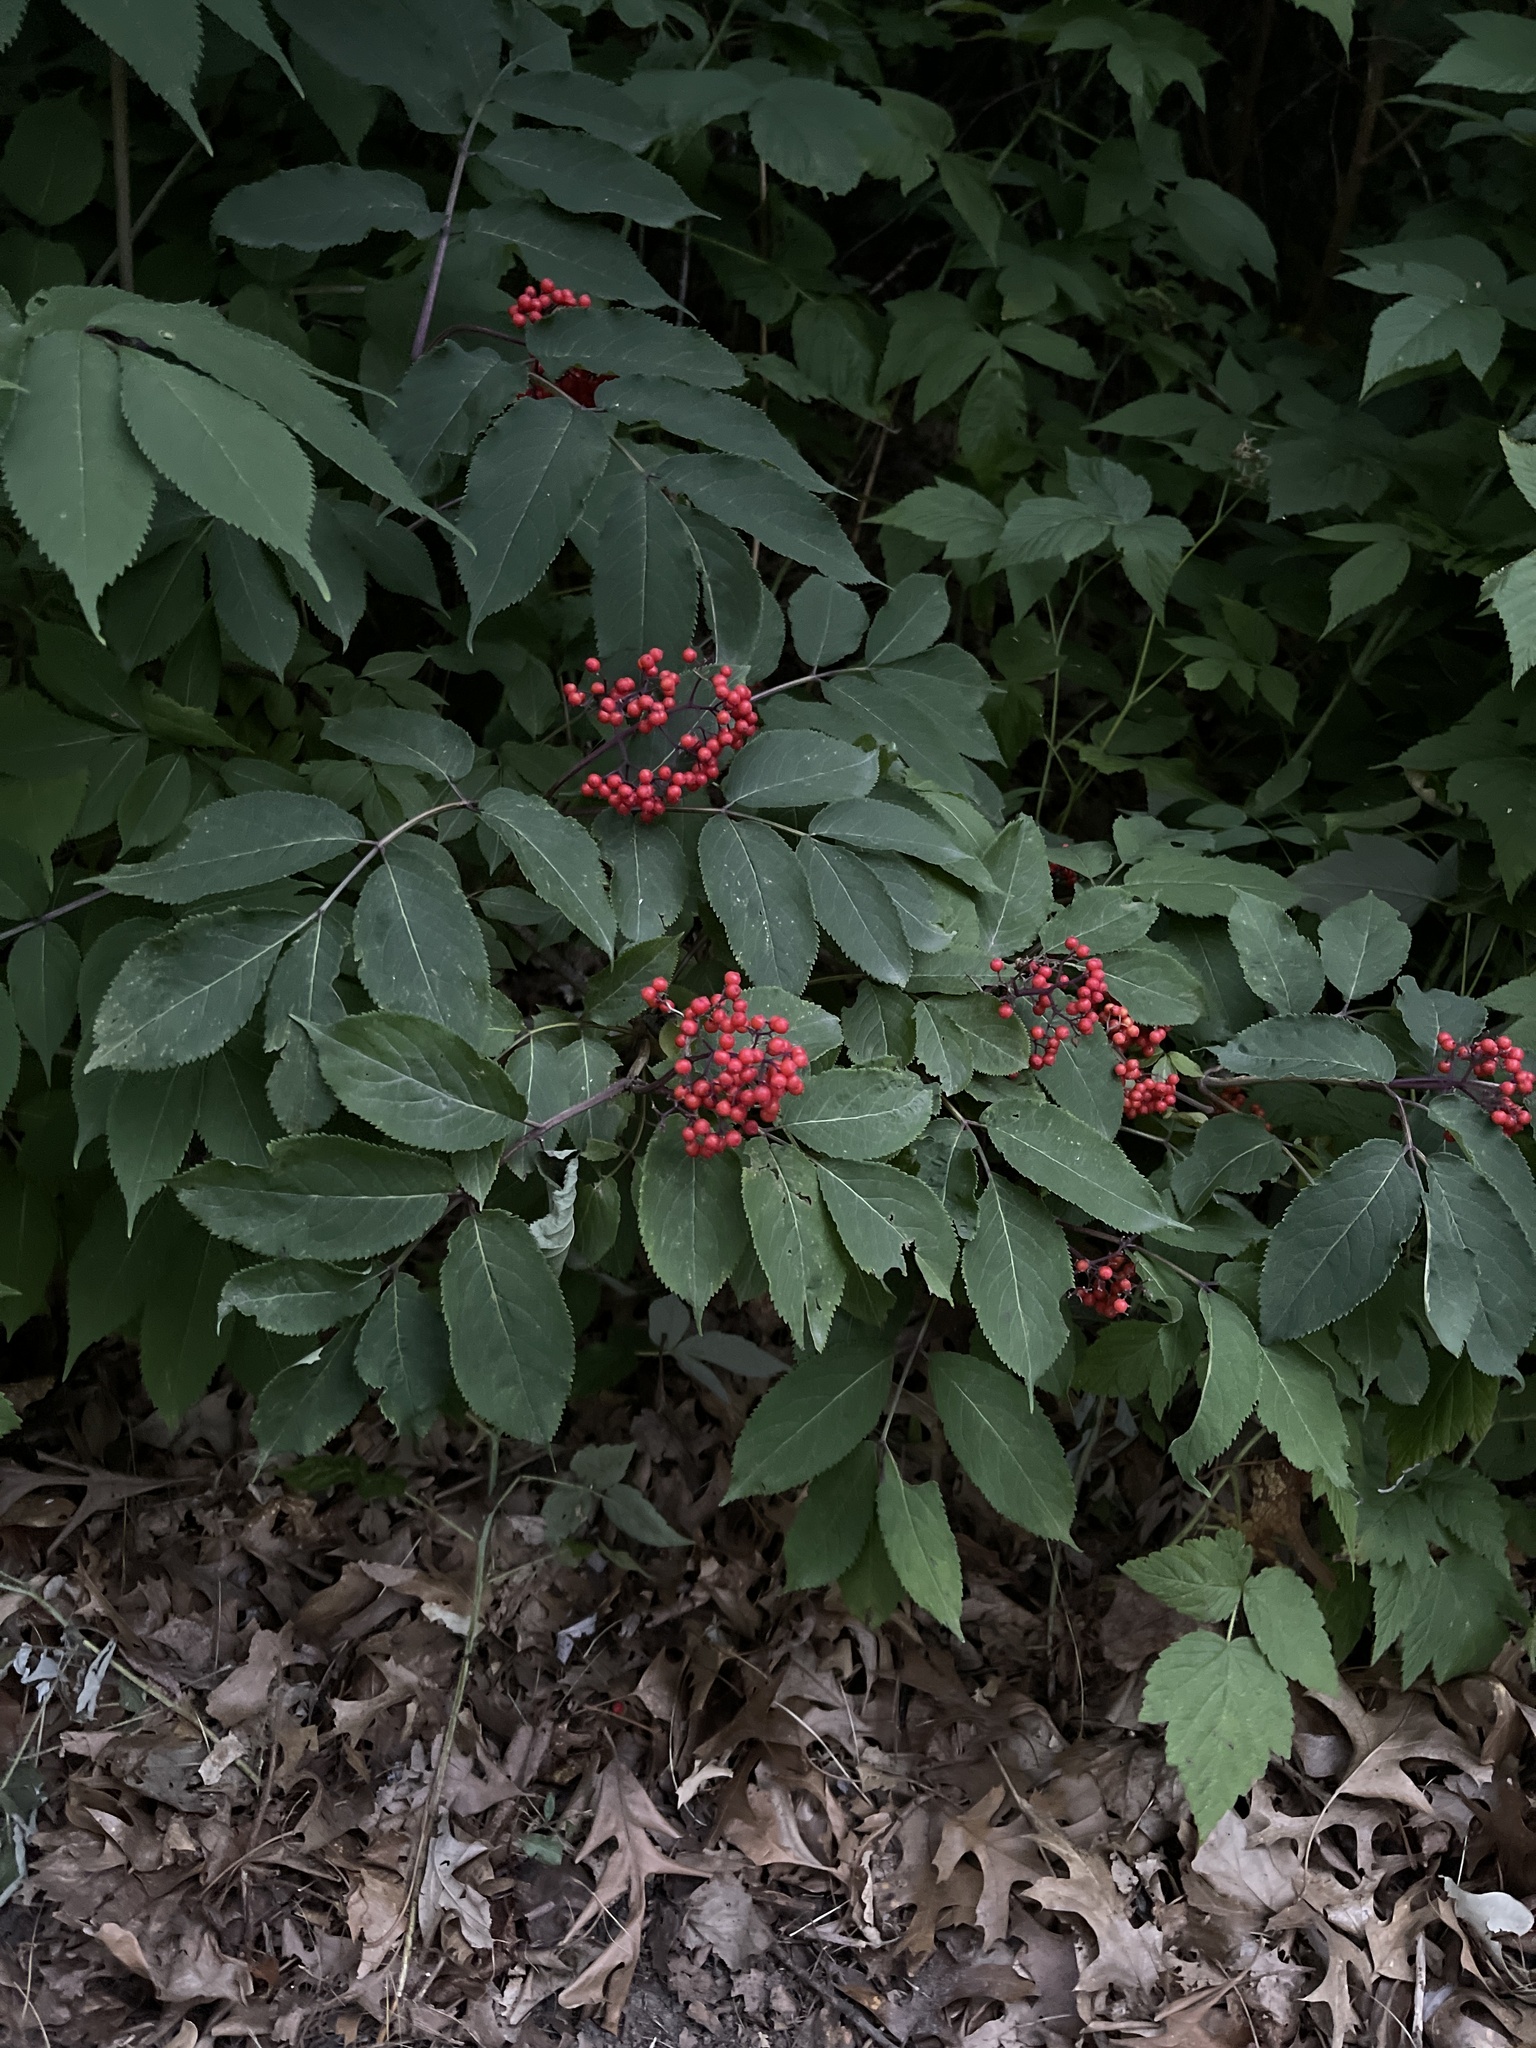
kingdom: Plantae
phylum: Tracheophyta
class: Magnoliopsida
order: Dipsacales
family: Viburnaceae
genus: Sambucus
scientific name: Sambucus racemosa
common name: Red-berried elder
